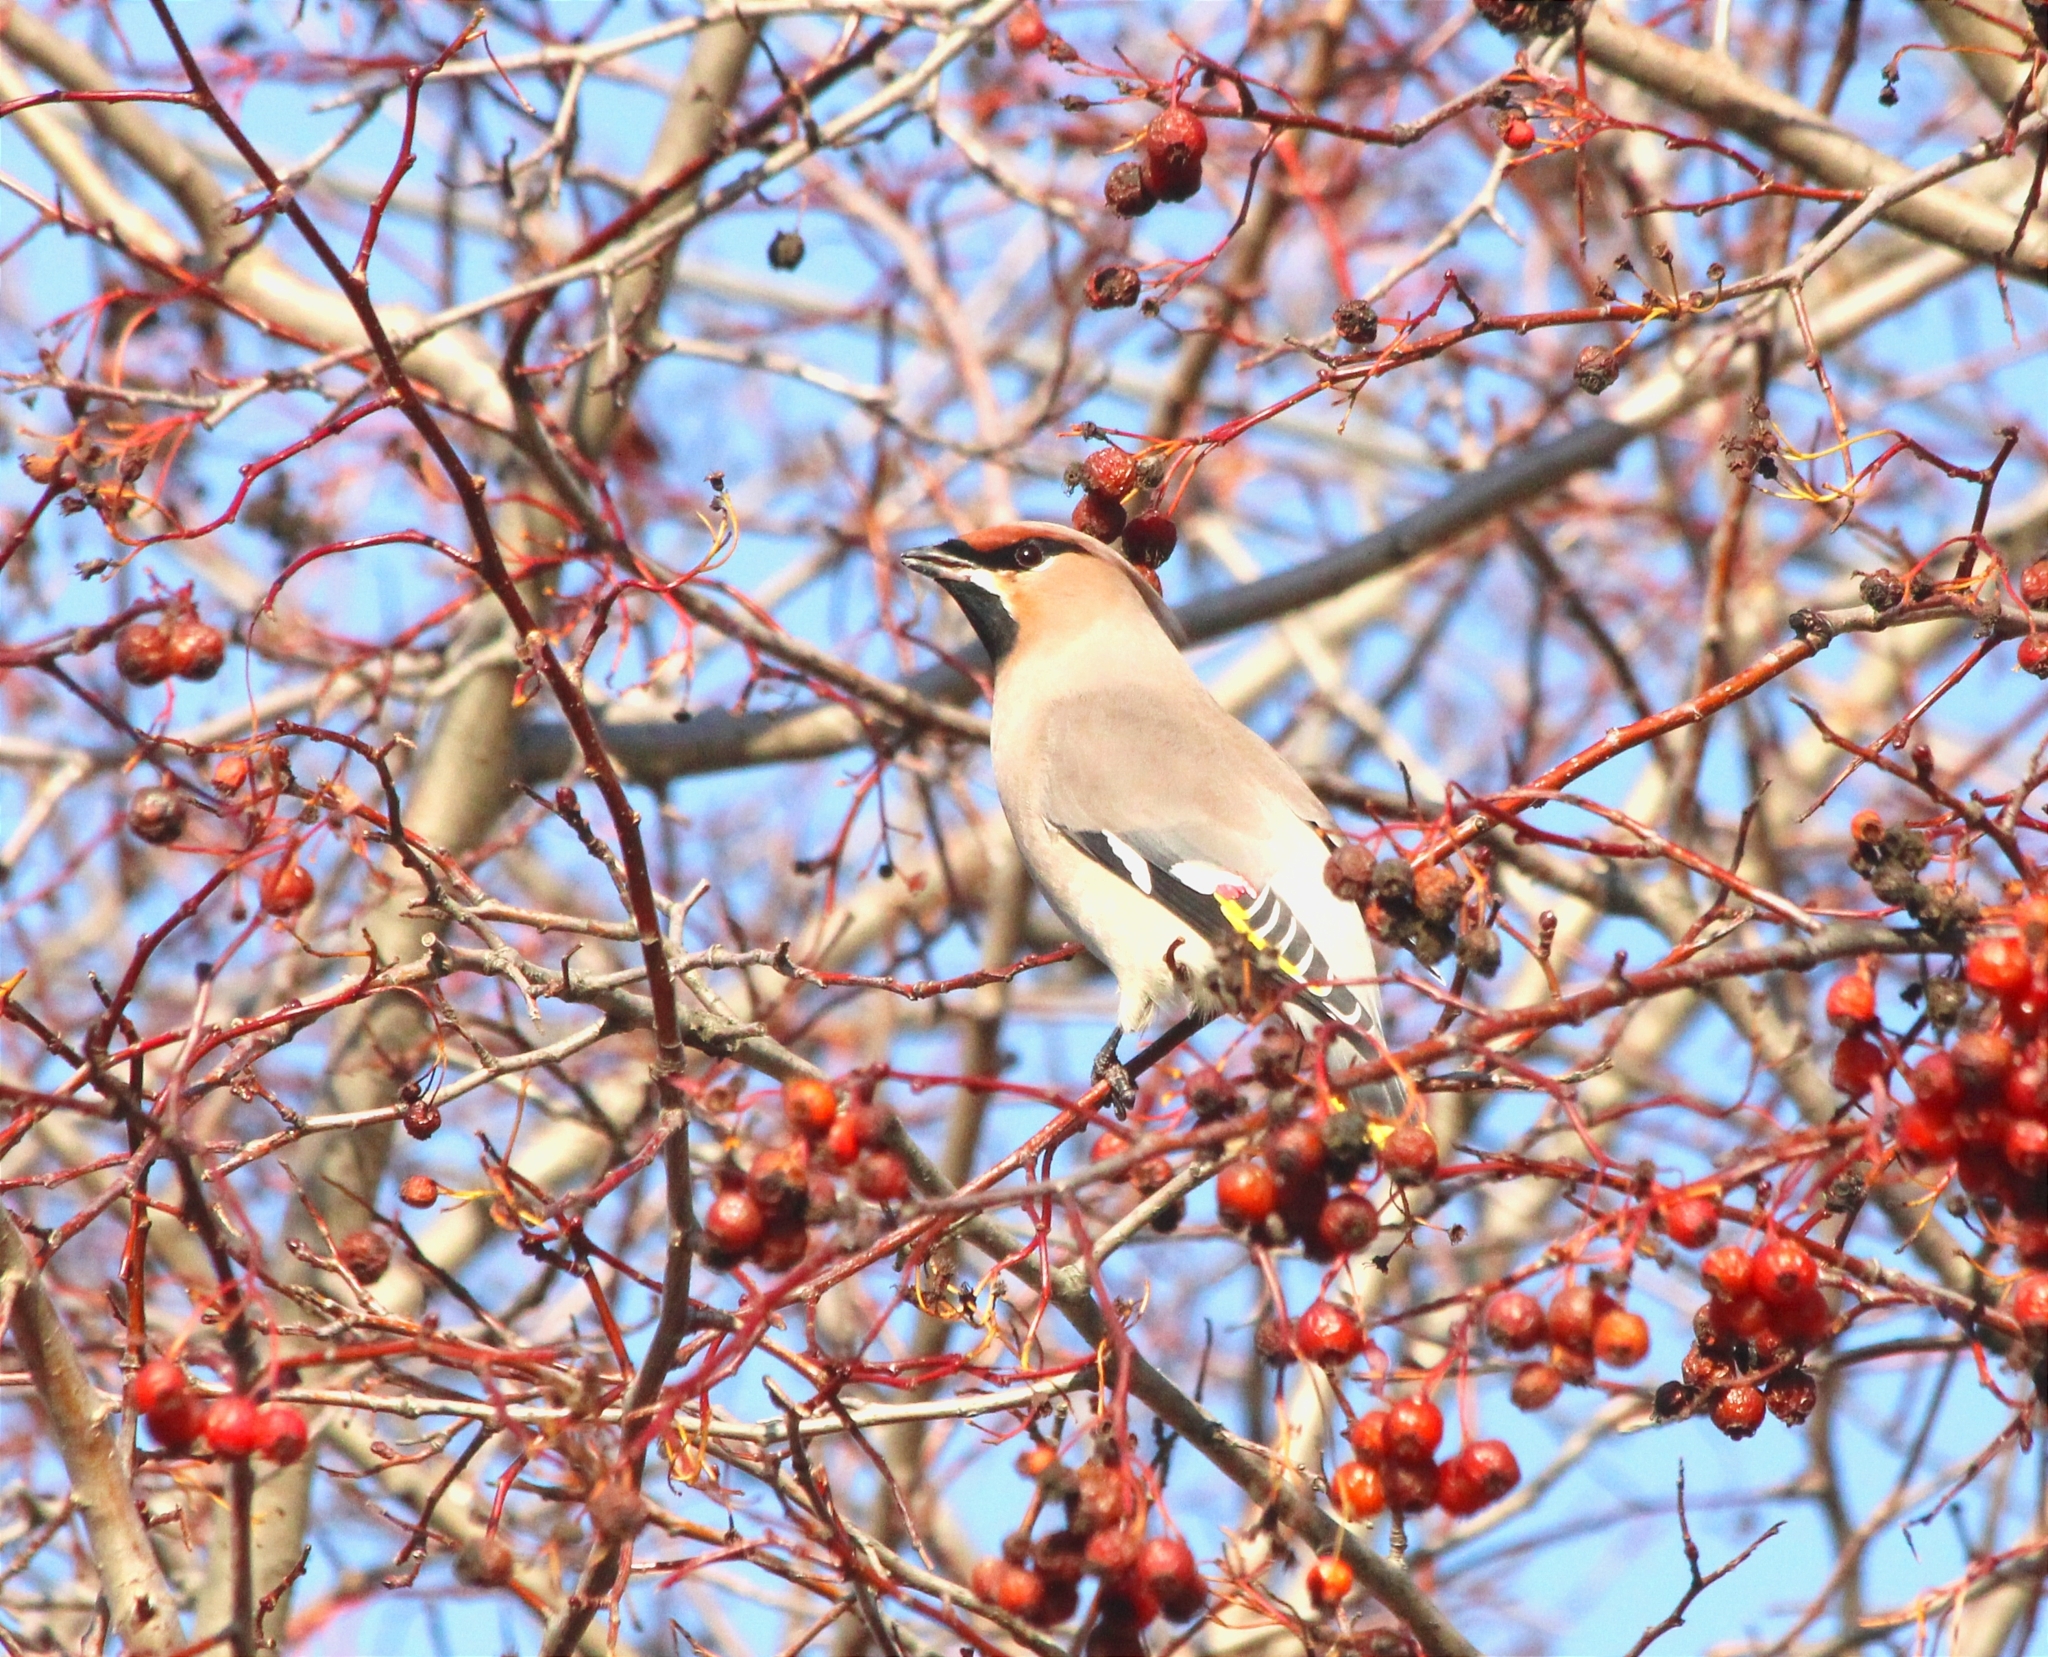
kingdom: Animalia
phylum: Chordata
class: Aves
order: Passeriformes
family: Bombycillidae
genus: Bombycilla
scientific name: Bombycilla garrulus
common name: Bohemian waxwing
